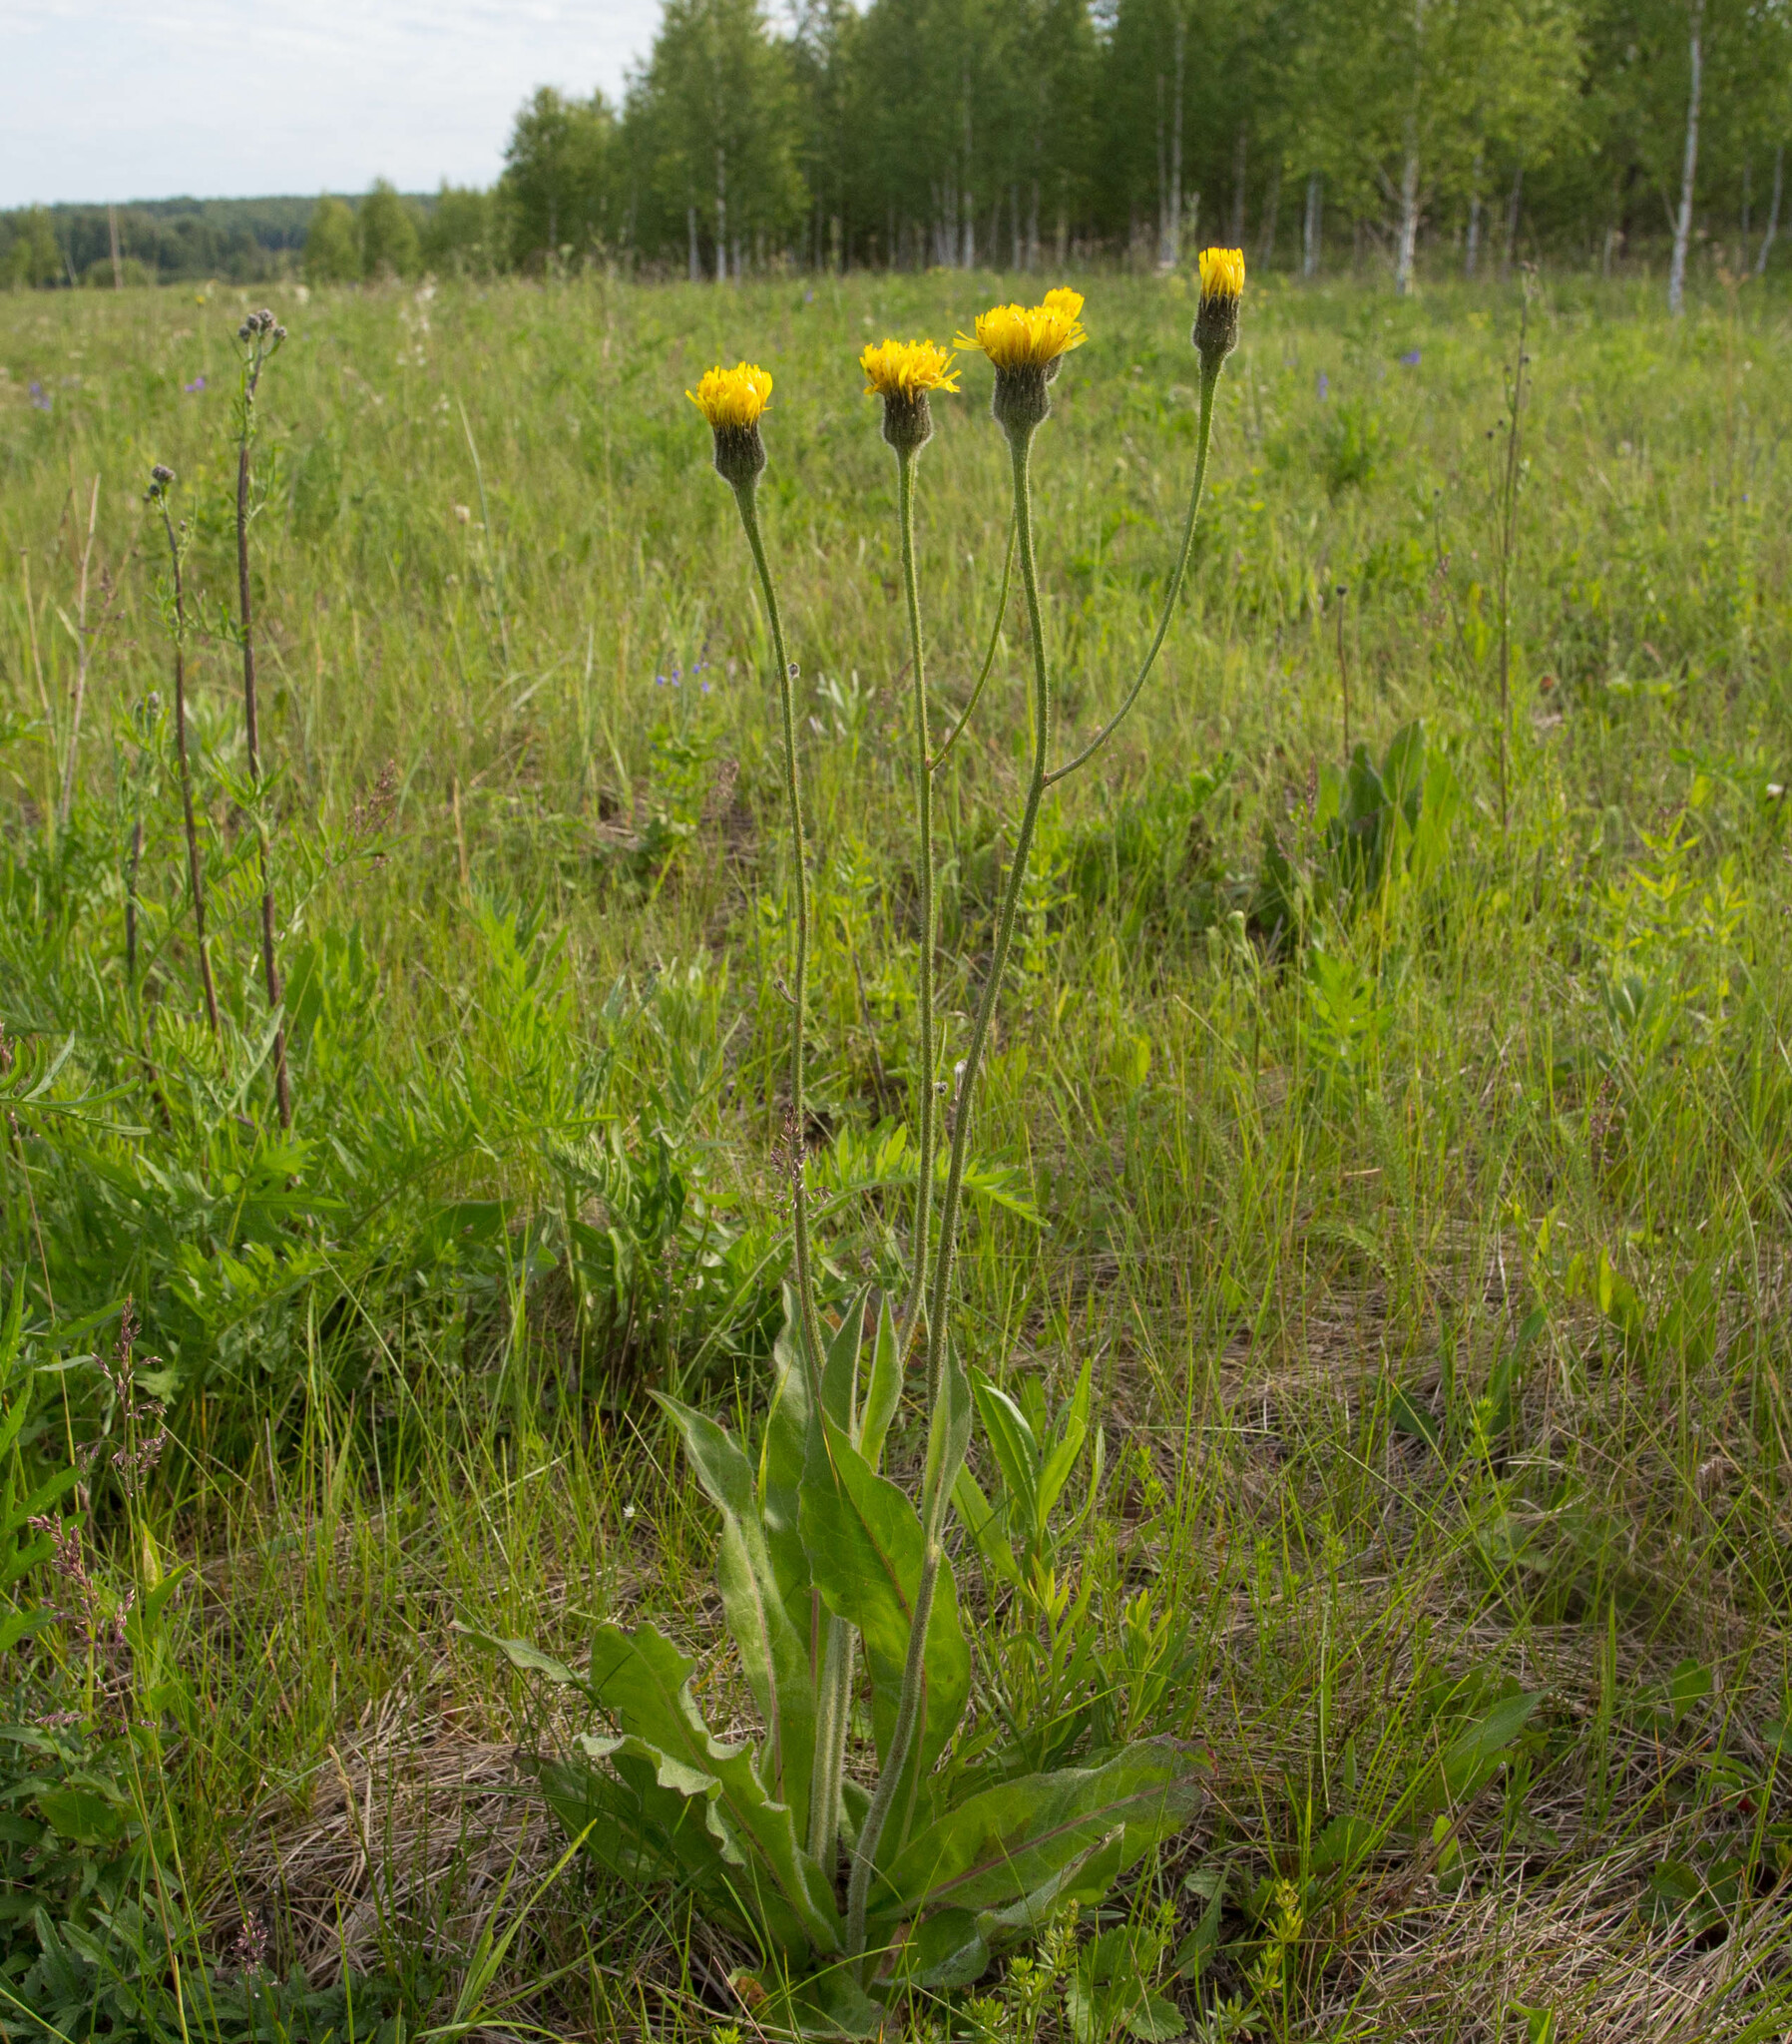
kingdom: Plantae
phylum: Tracheophyta
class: Magnoliopsida
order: Asterales
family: Asteraceae
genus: Trommsdorffia
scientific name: Trommsdorffia maculata
